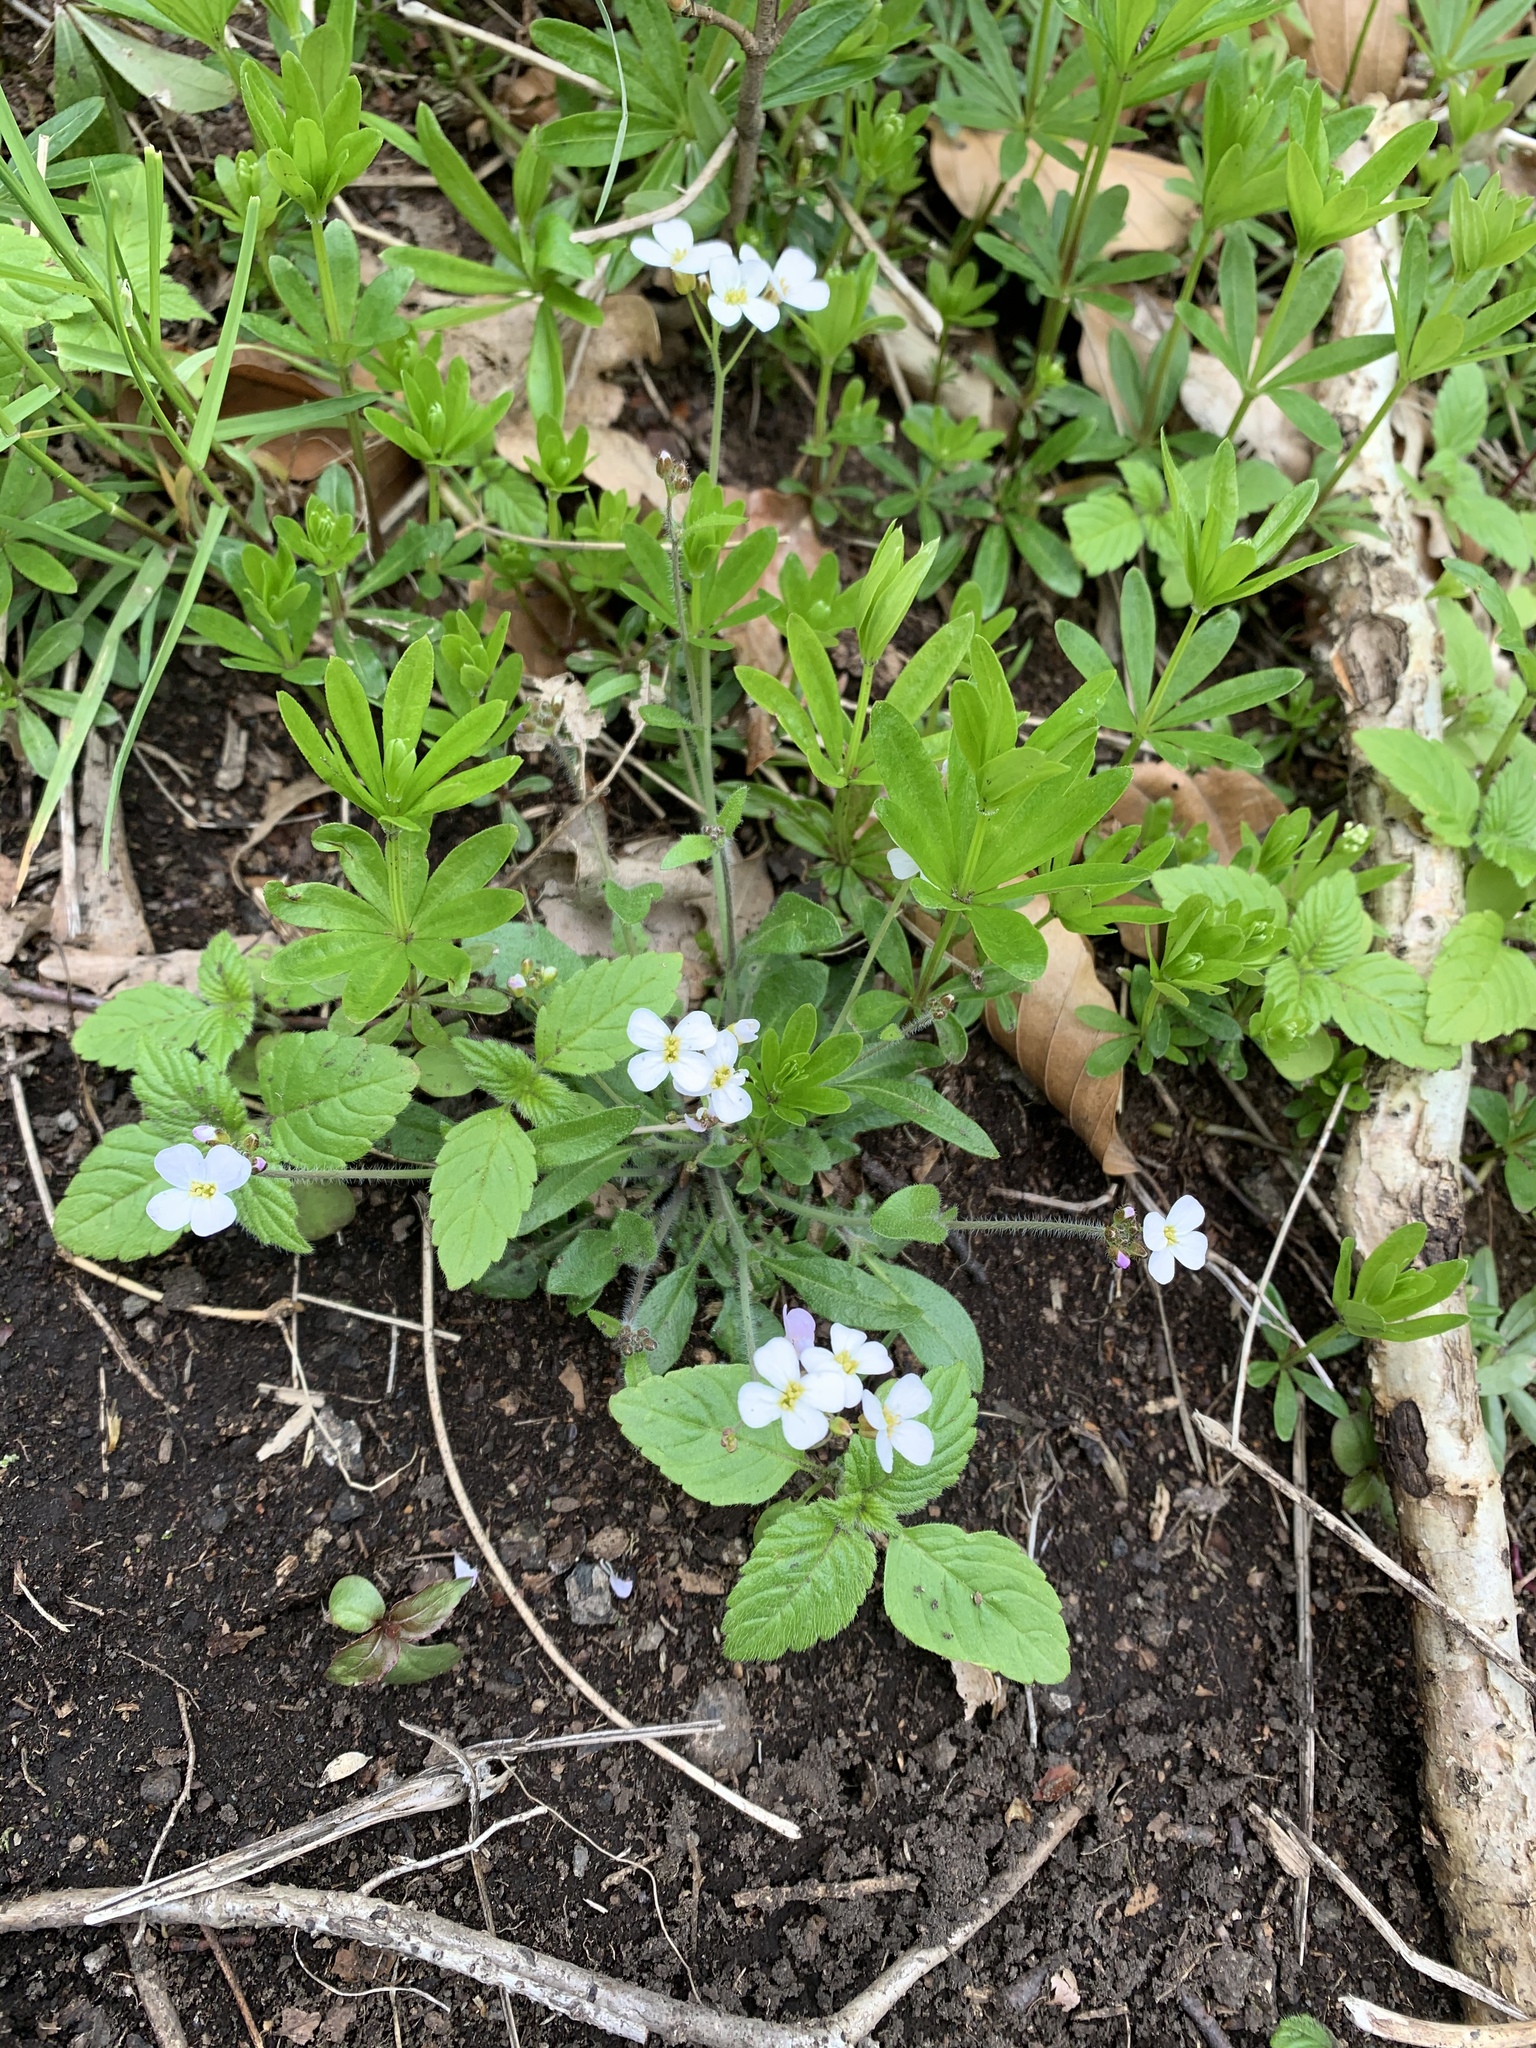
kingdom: Plantae
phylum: Tracheophyta
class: Magnoliopsida
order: Brassicales
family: Brassicaceae
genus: Arabidopsis
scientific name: Arabidopsis arenosa
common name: Sand rock-cress
